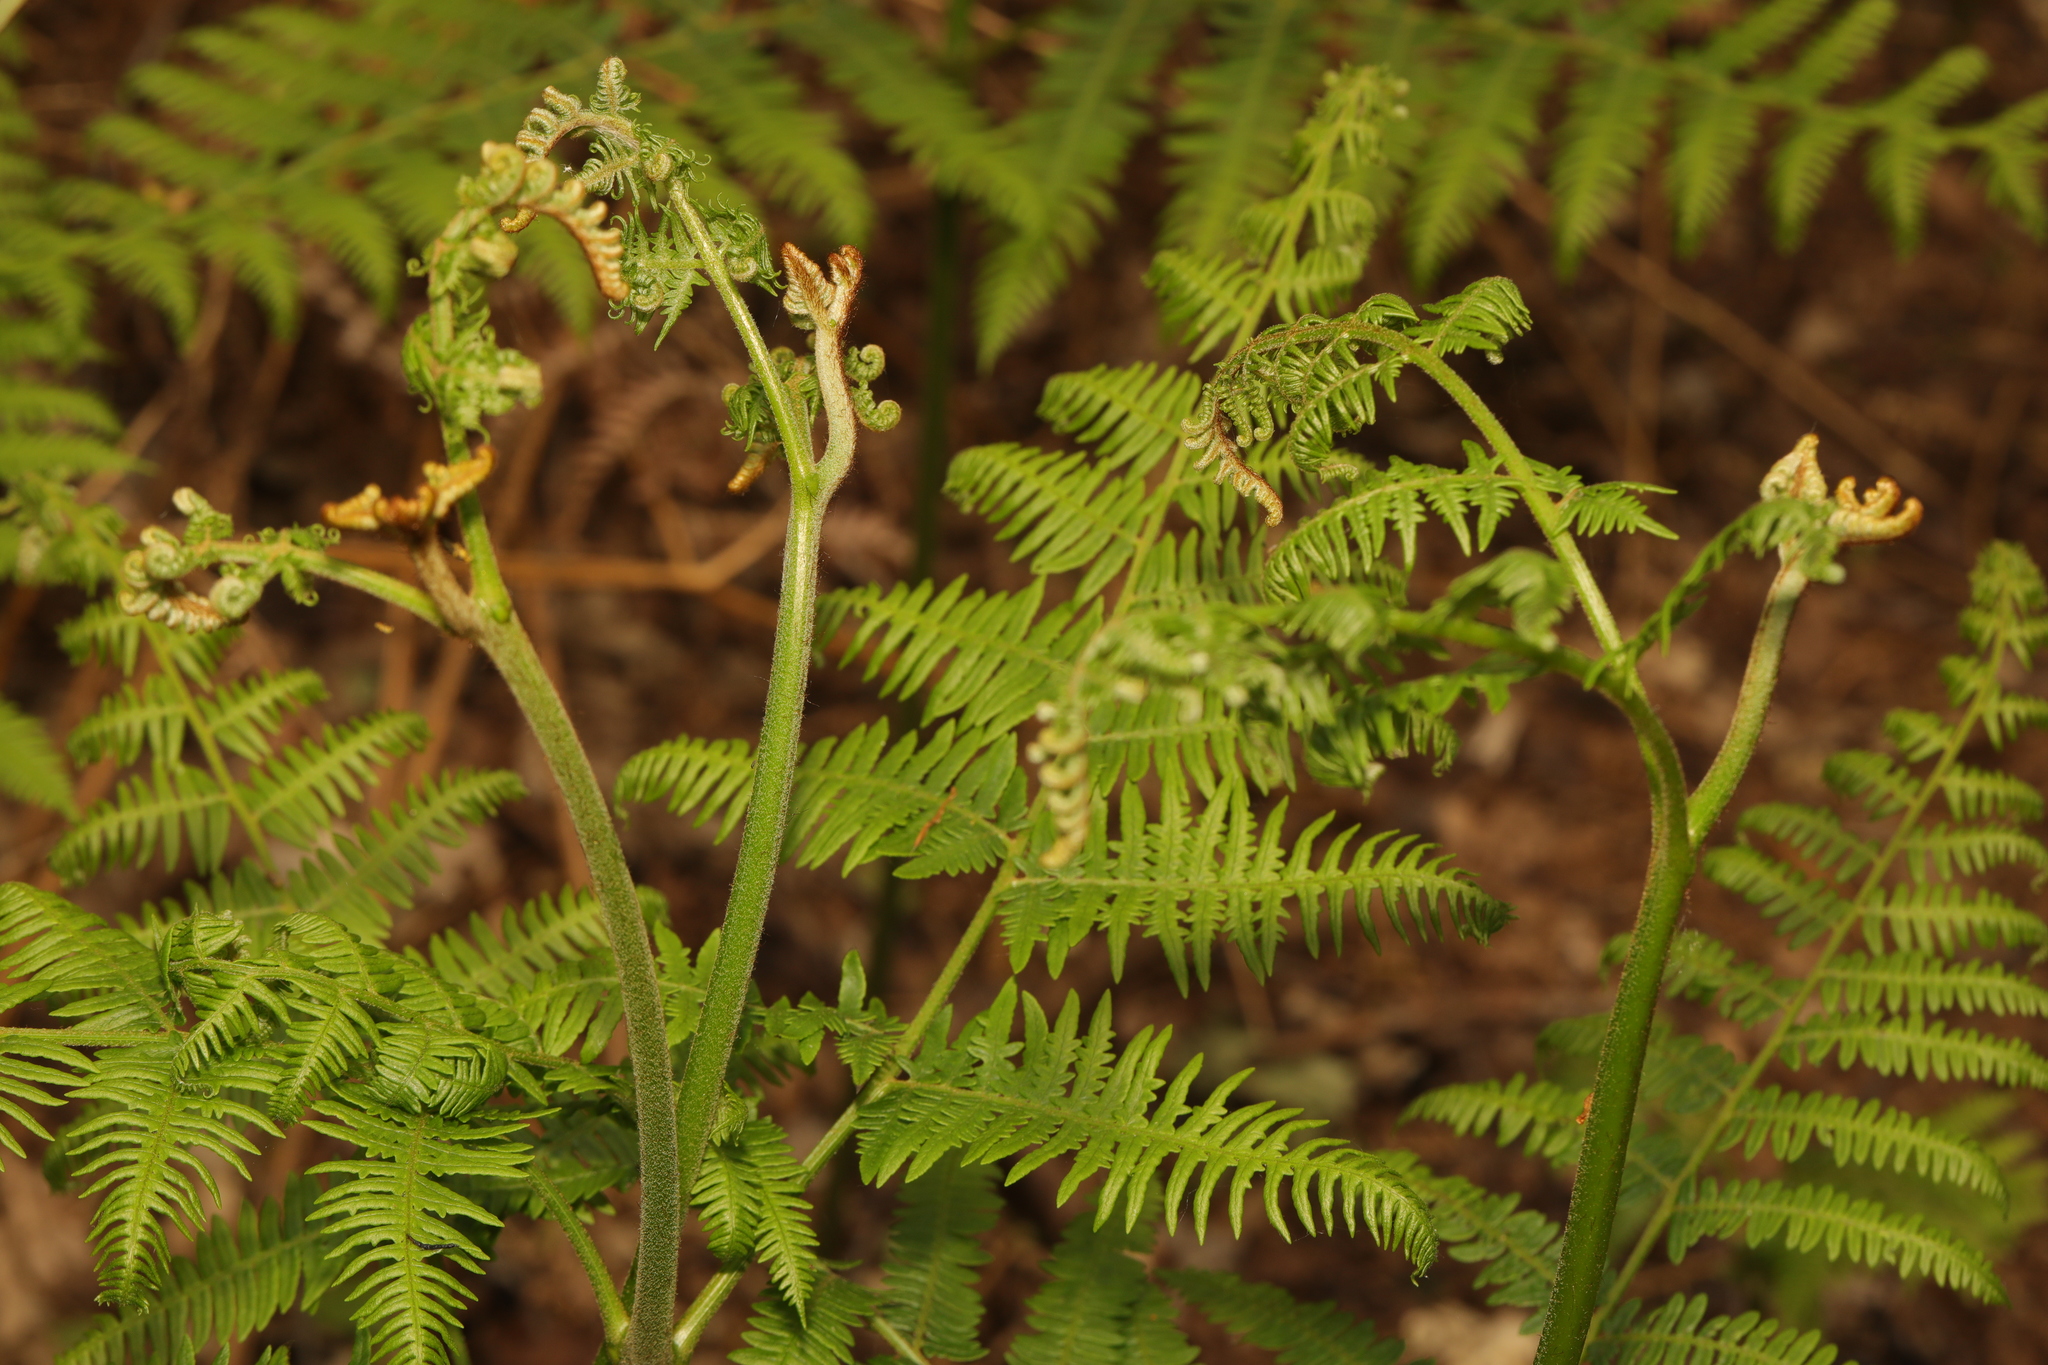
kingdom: Plantae
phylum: Tracheophyta
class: Polypodiopsida
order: Polypodiales
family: Dennstaedtiaceae
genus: Pteridium
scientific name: Pteridium aquilinum
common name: Bracken
